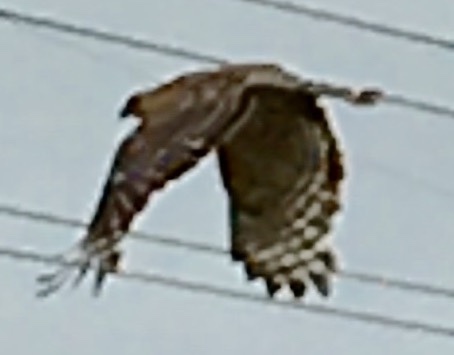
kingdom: Animalia
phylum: Chordata
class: Aves
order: Accipitriformes
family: Accipitridae
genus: Buteo
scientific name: Buteo lineatus
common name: Red-shouldered hawk
